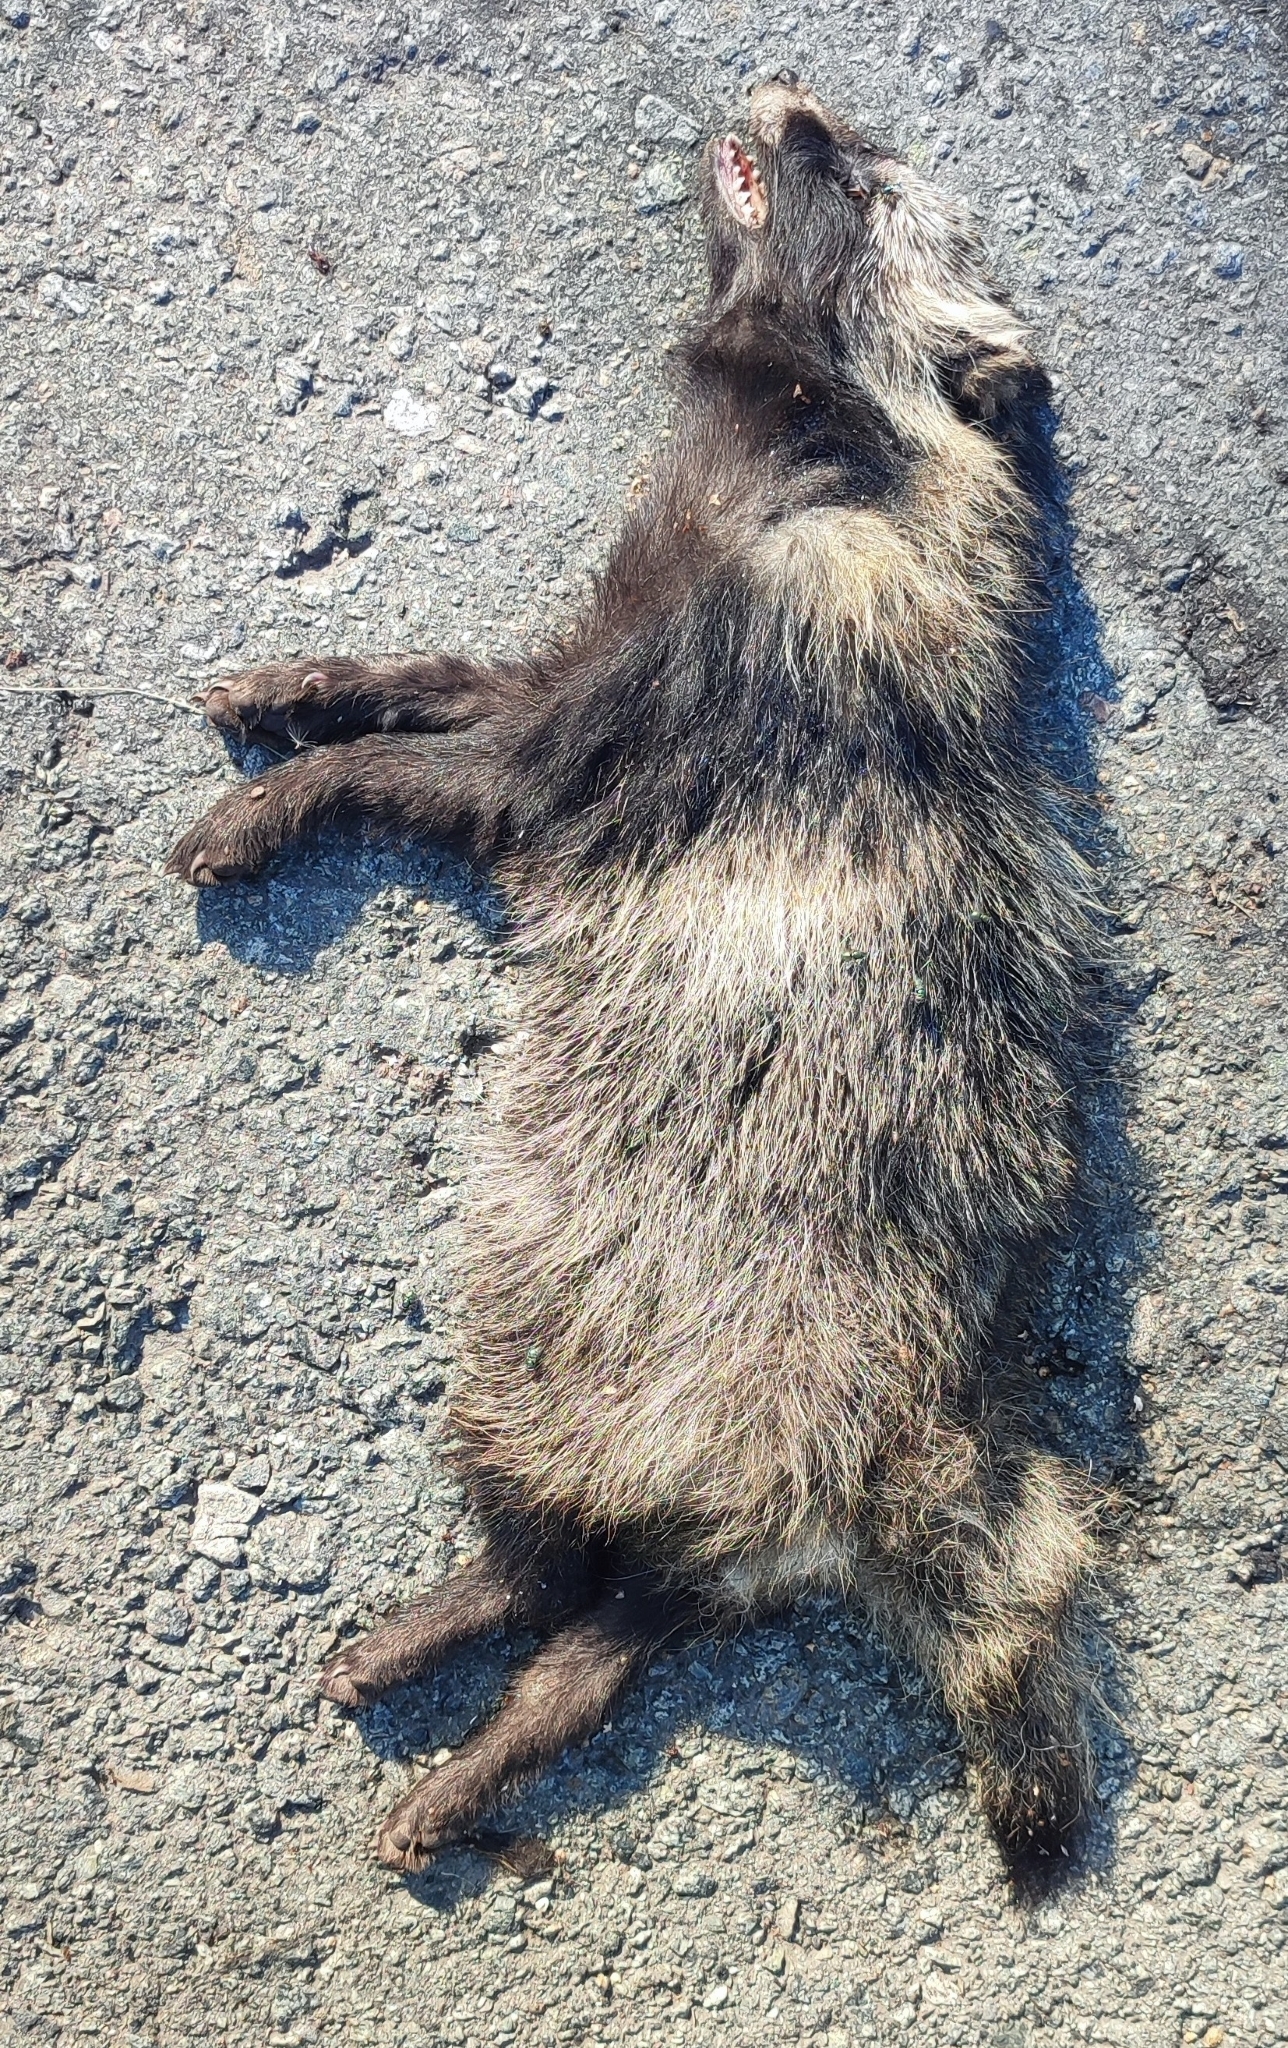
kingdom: Animalia
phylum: Chordata
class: Mammalia
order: Carnivora
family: Canidae
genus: Nyctereutes
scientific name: Nyctereutes procyonoides
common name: Raccoon dog
